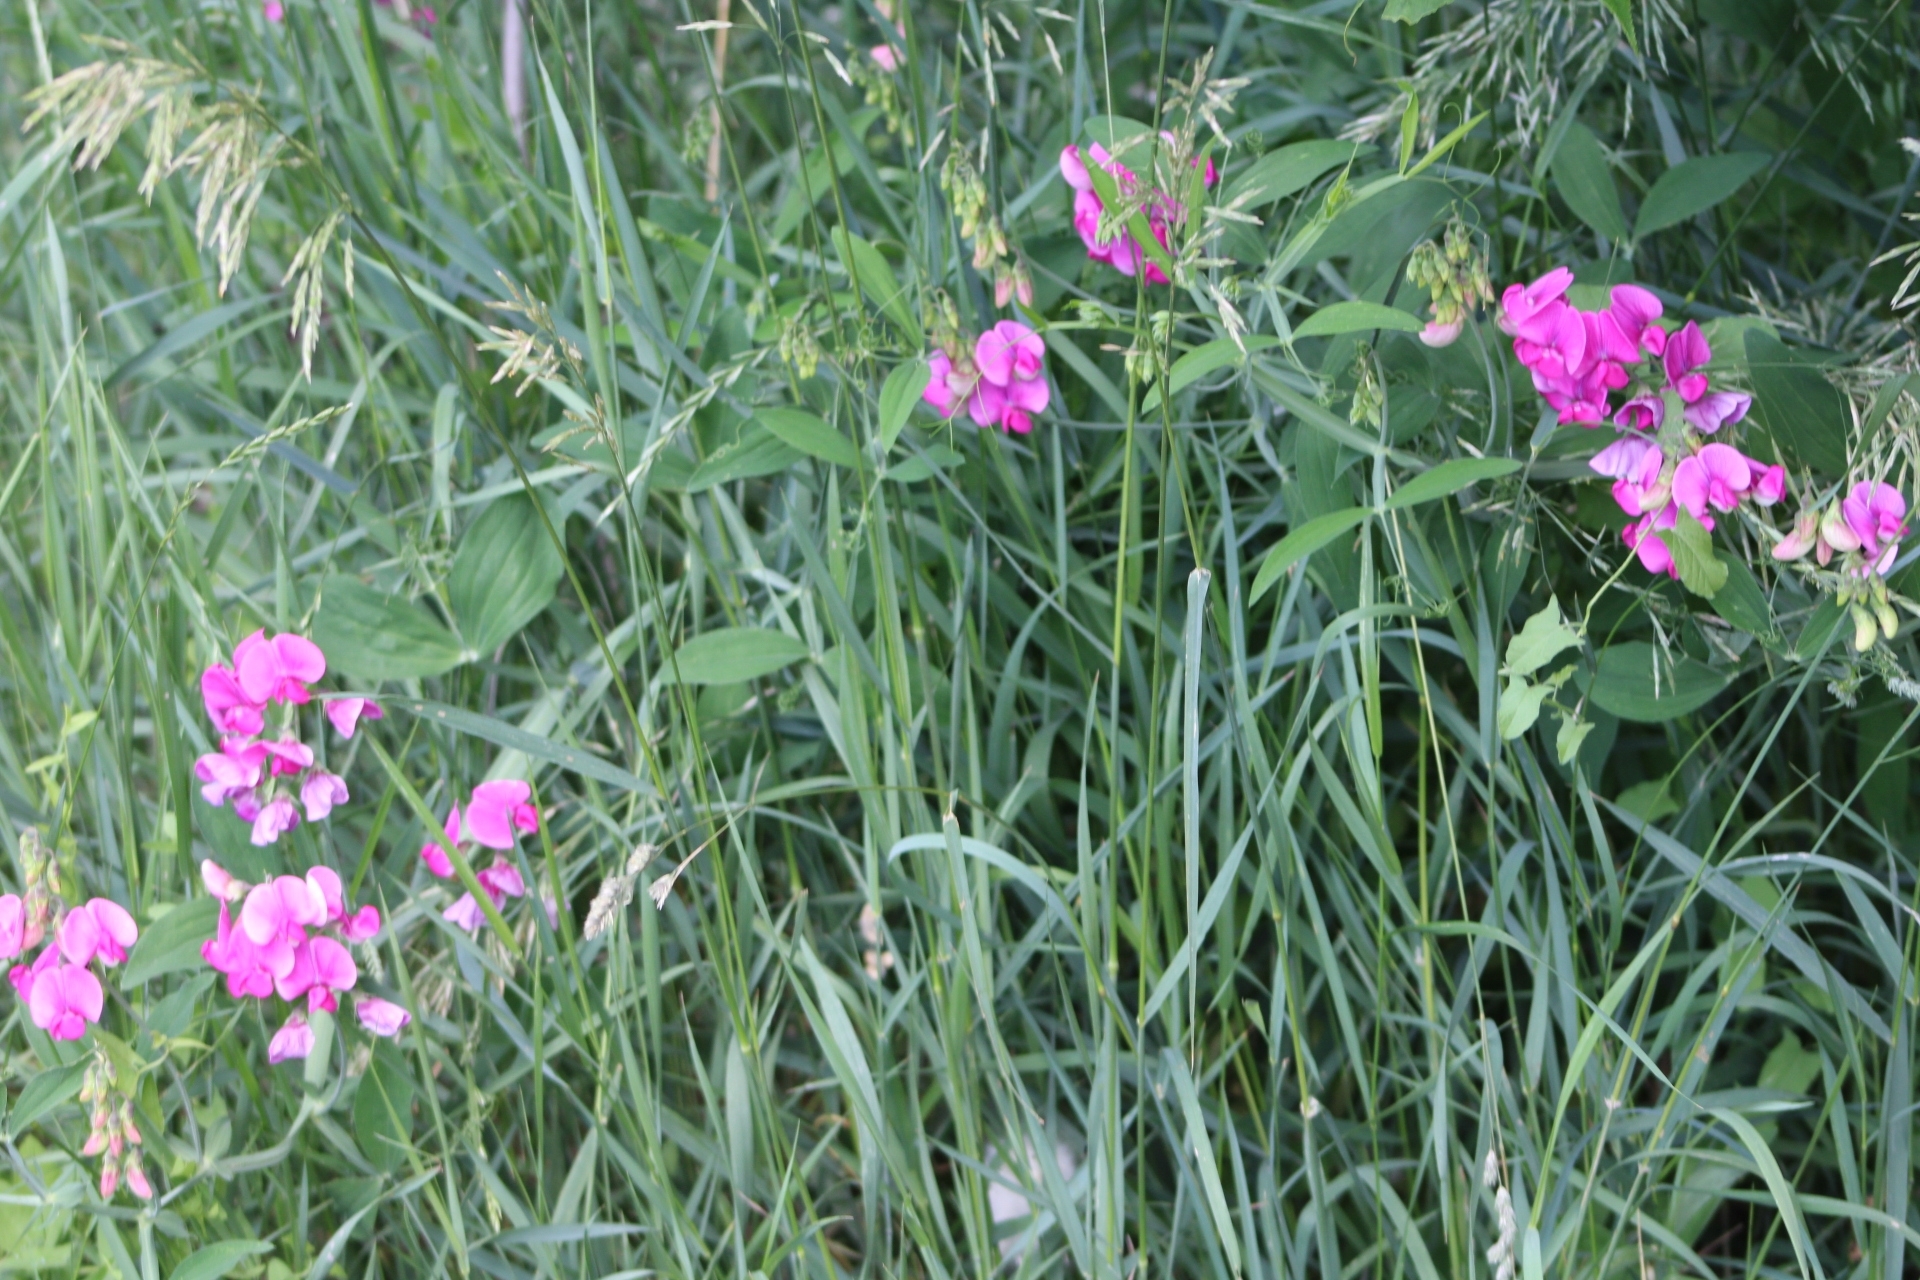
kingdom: Plantae
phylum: Tracheophyta
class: Magnoliopsida
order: Fabales
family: Fabaceae
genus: Lathyrus
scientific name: Lathyrus latifolius
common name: Perennial pea
